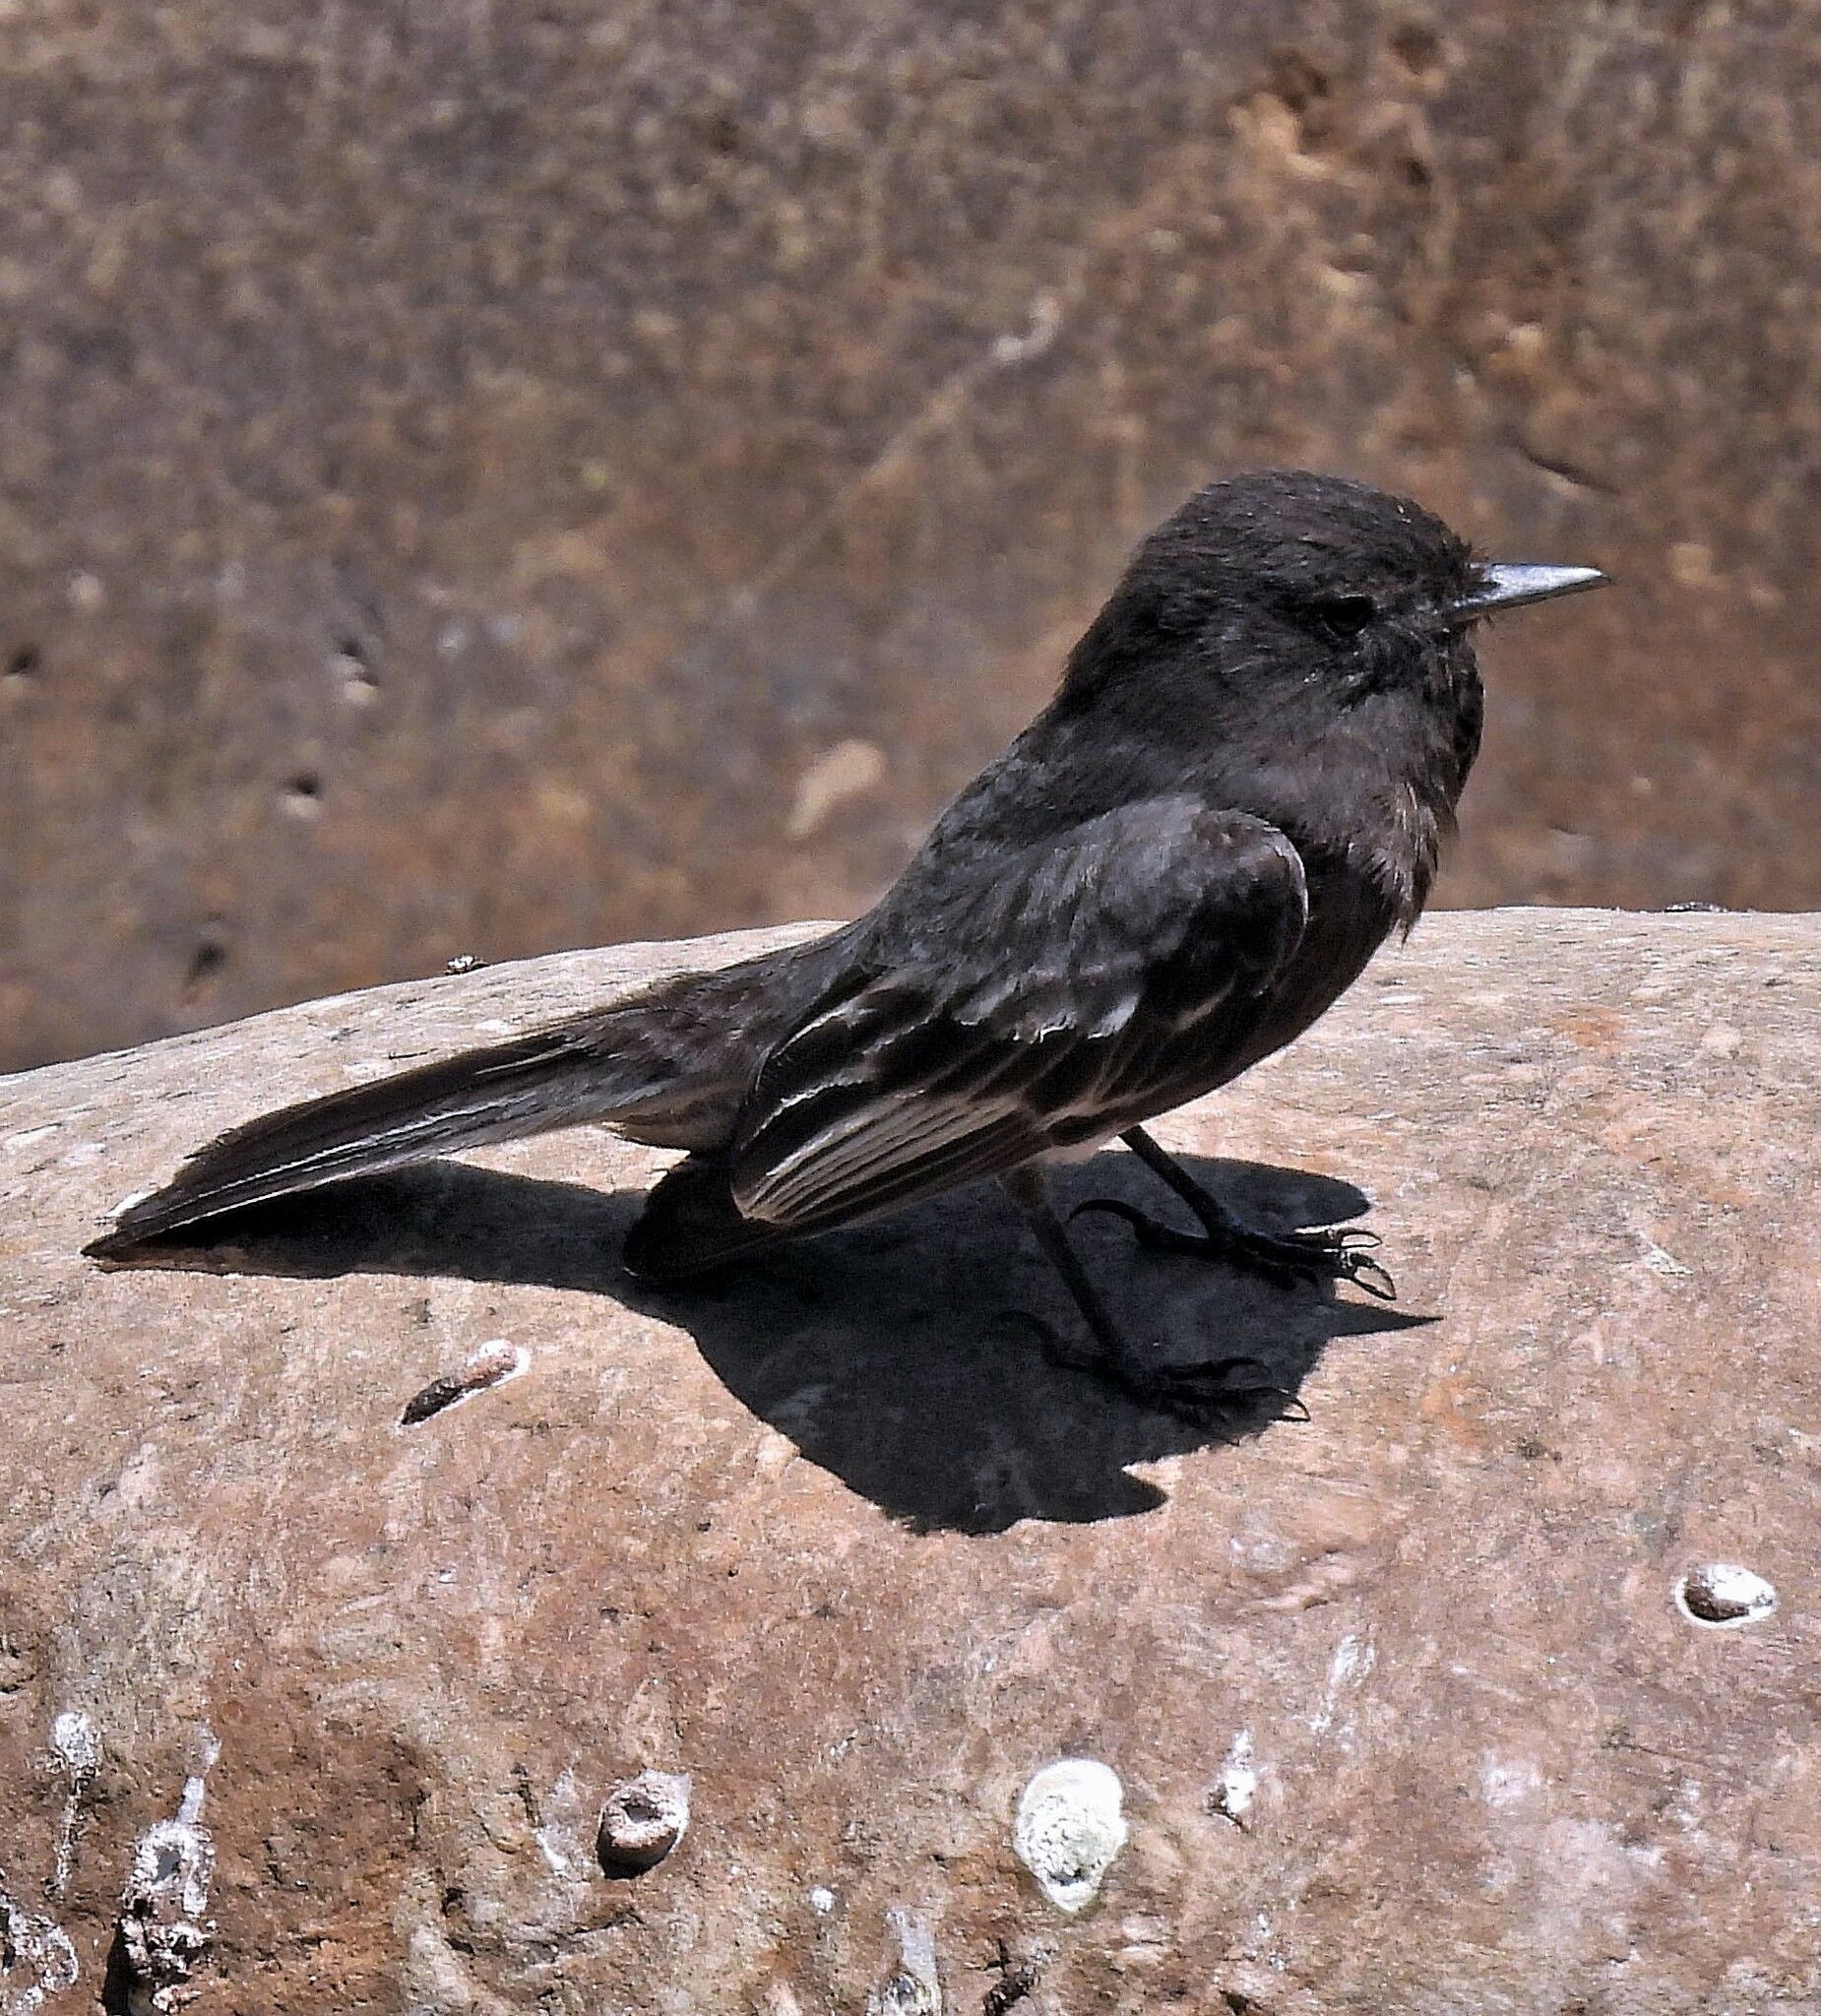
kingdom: Animalia
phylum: Chordata
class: Aves
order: Passeriformes
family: Tyrannidae
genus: Sayornis
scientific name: Sayornis nigricans
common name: Black phoebe
